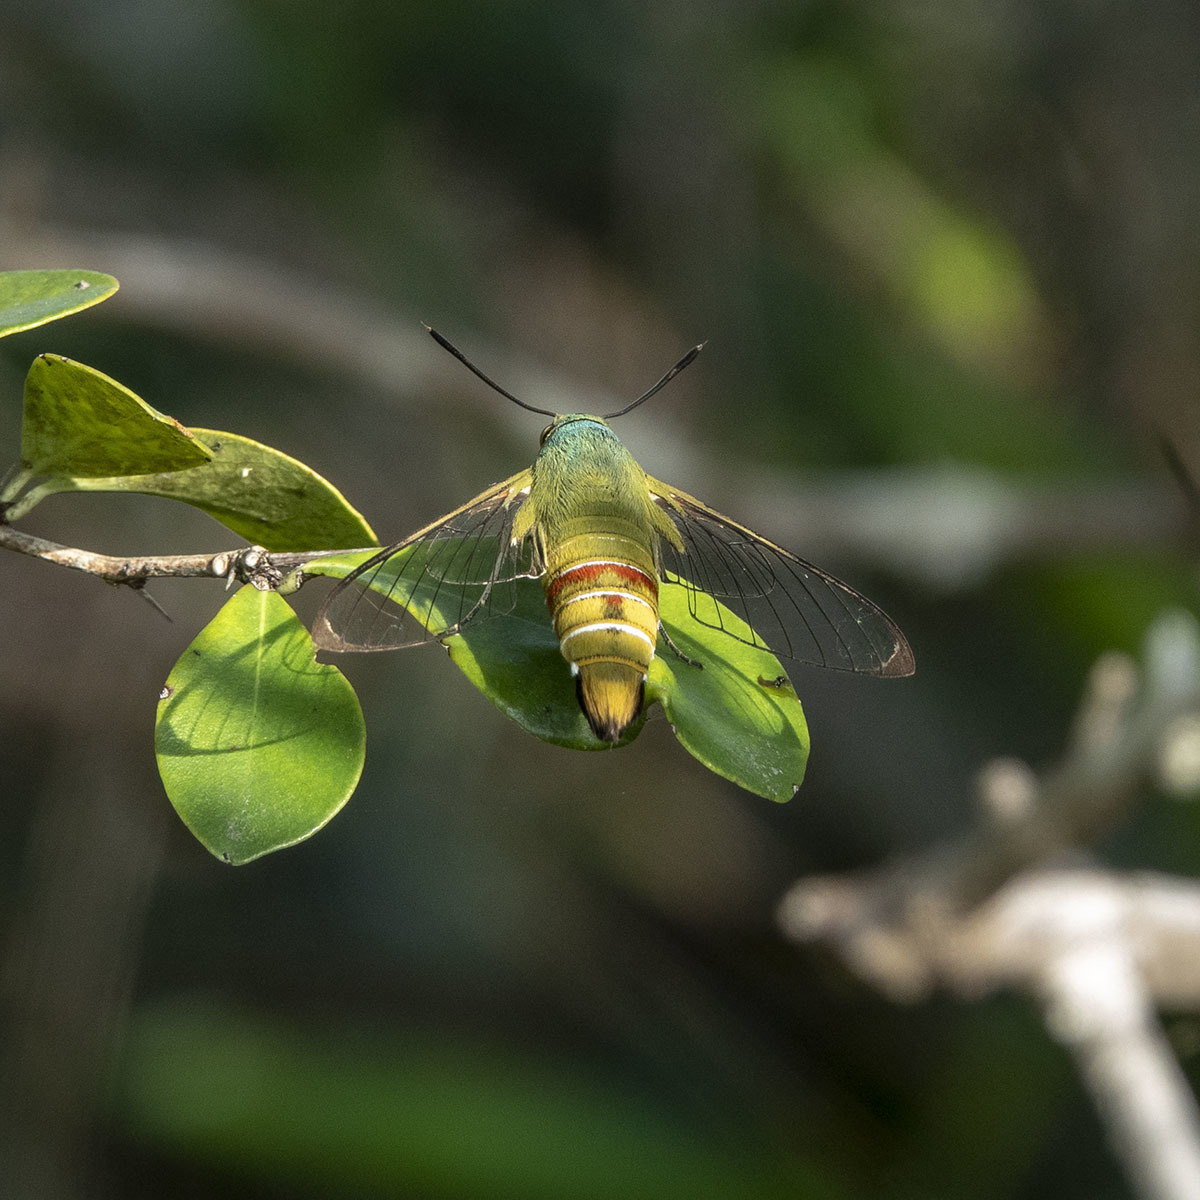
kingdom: Animalia
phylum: Arthropoda
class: Insecta
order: Lepidoptera
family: Sphingidae
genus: Cephonodes
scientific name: Cephonodes hylas
